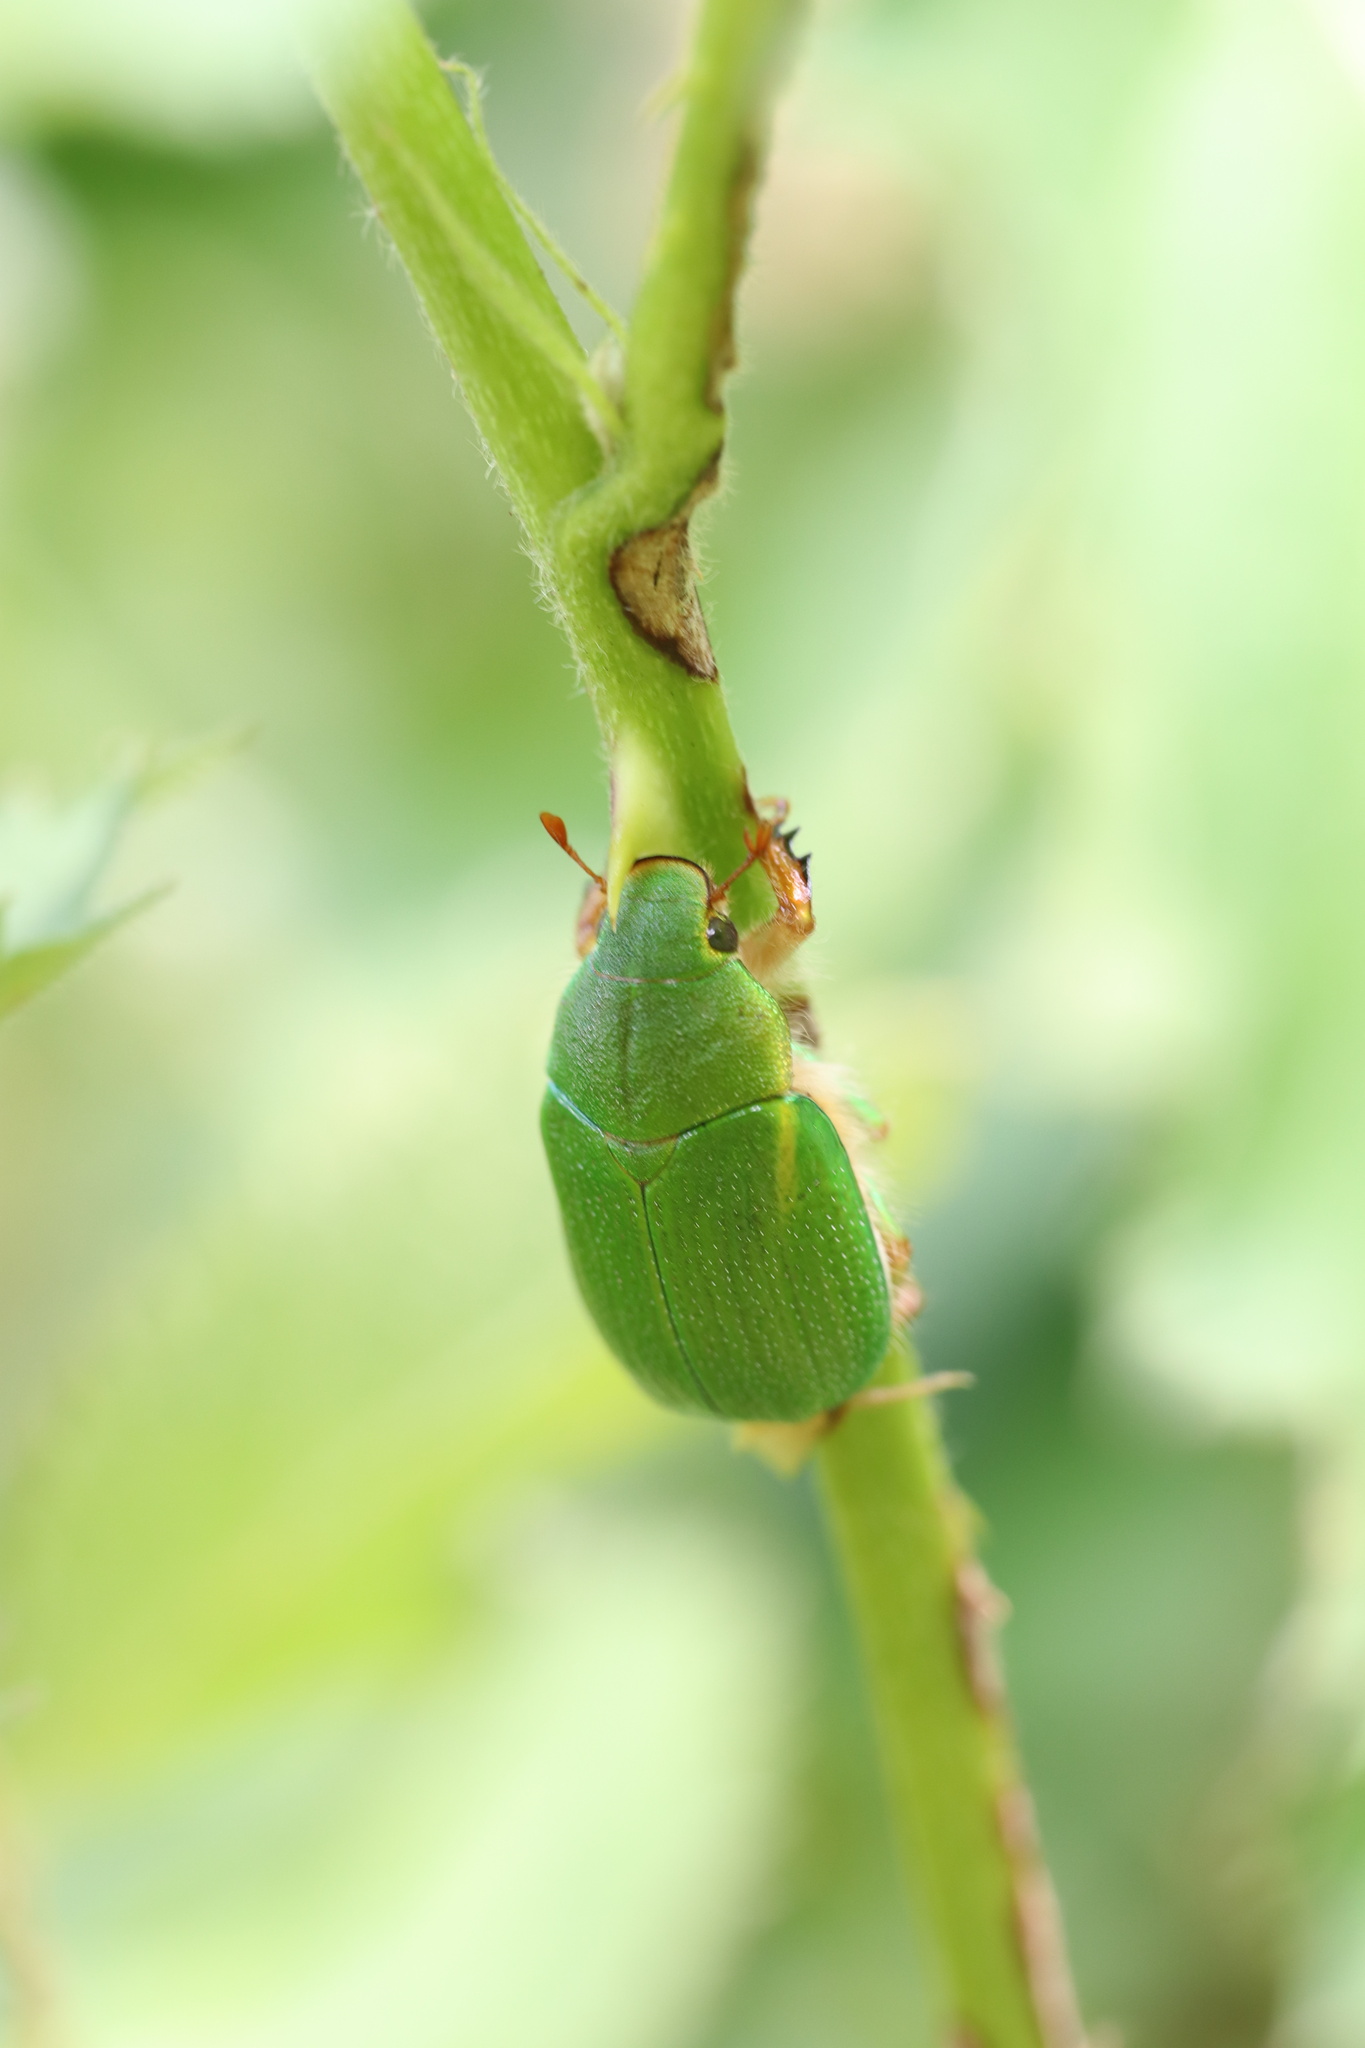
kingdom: Animalia
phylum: Arthropoda
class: Insecta
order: Coleoptera
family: Scarabaeidae
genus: Hylamorpha
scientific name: Hylamorpha elegans
